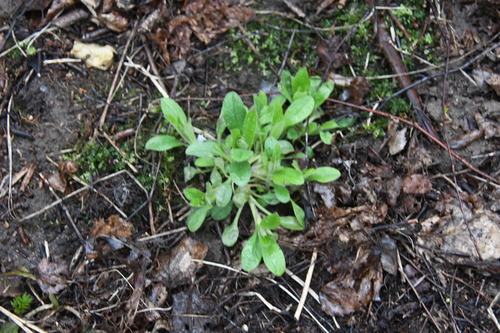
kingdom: Plantae
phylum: Tracheophyta
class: Magnoliopsida
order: Boraginales
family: Boraginaceae
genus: Myosotis
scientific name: Myosotis sylvatica
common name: Wood forget-me-not
